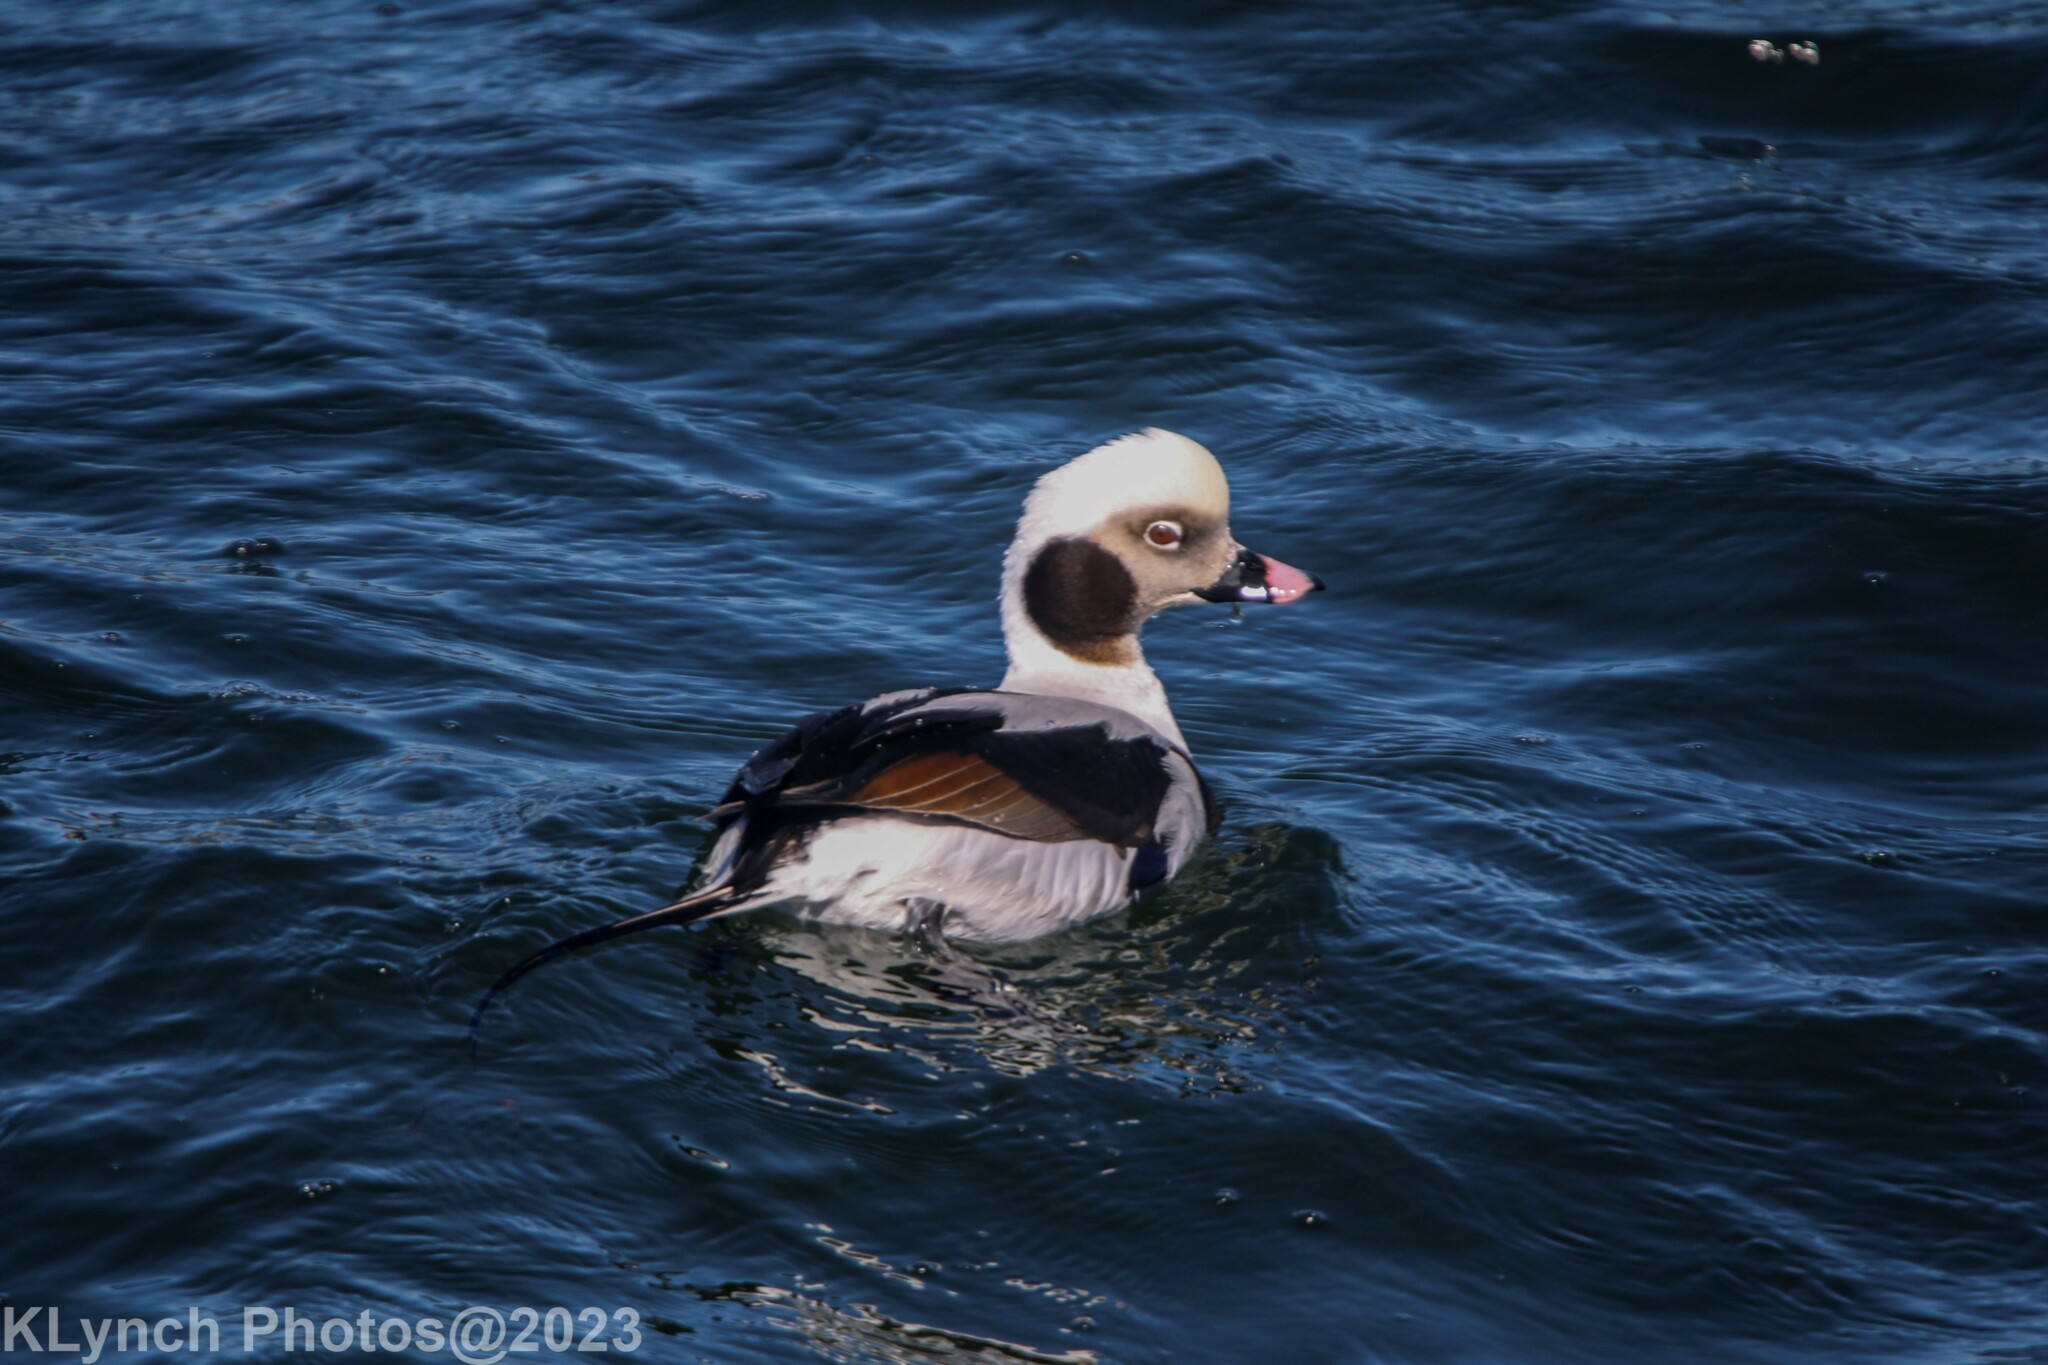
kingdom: Animalia
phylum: Chordata
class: Aves
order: Anseriformes
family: Anatidae
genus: Clangula
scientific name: Clangula hyemalis
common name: Long-tailed duck
